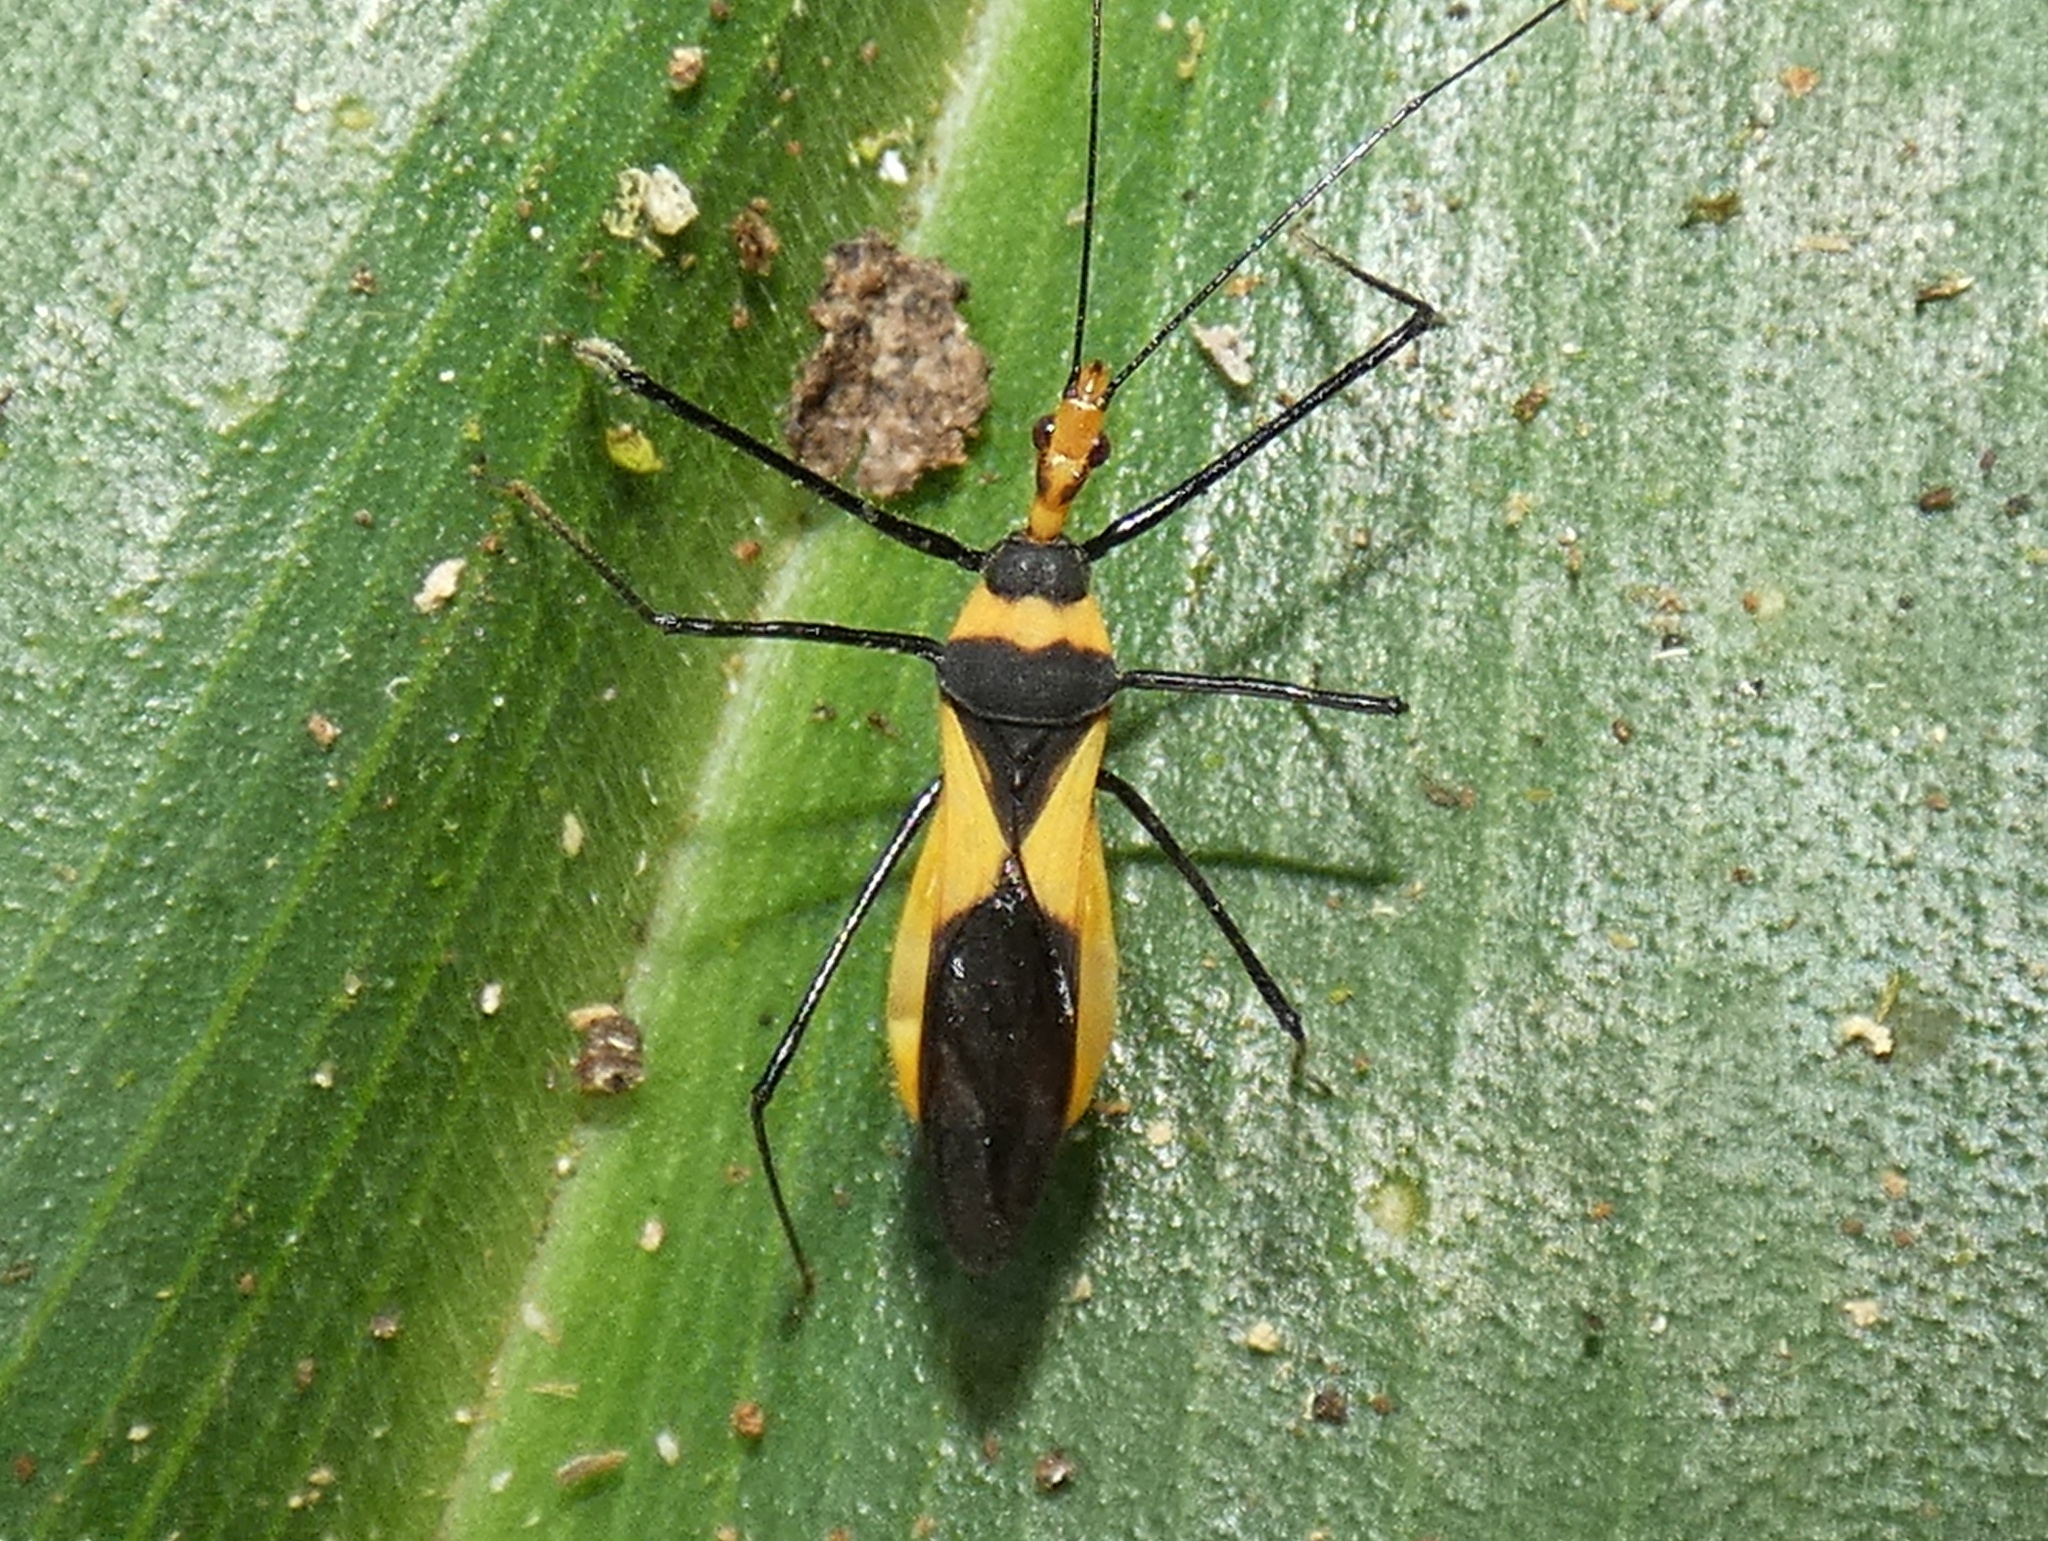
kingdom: Animalia
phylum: Arthropoda
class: Insecta
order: Hemiptera
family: Reduviidae
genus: Zelus
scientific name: Zelus fasciatus
